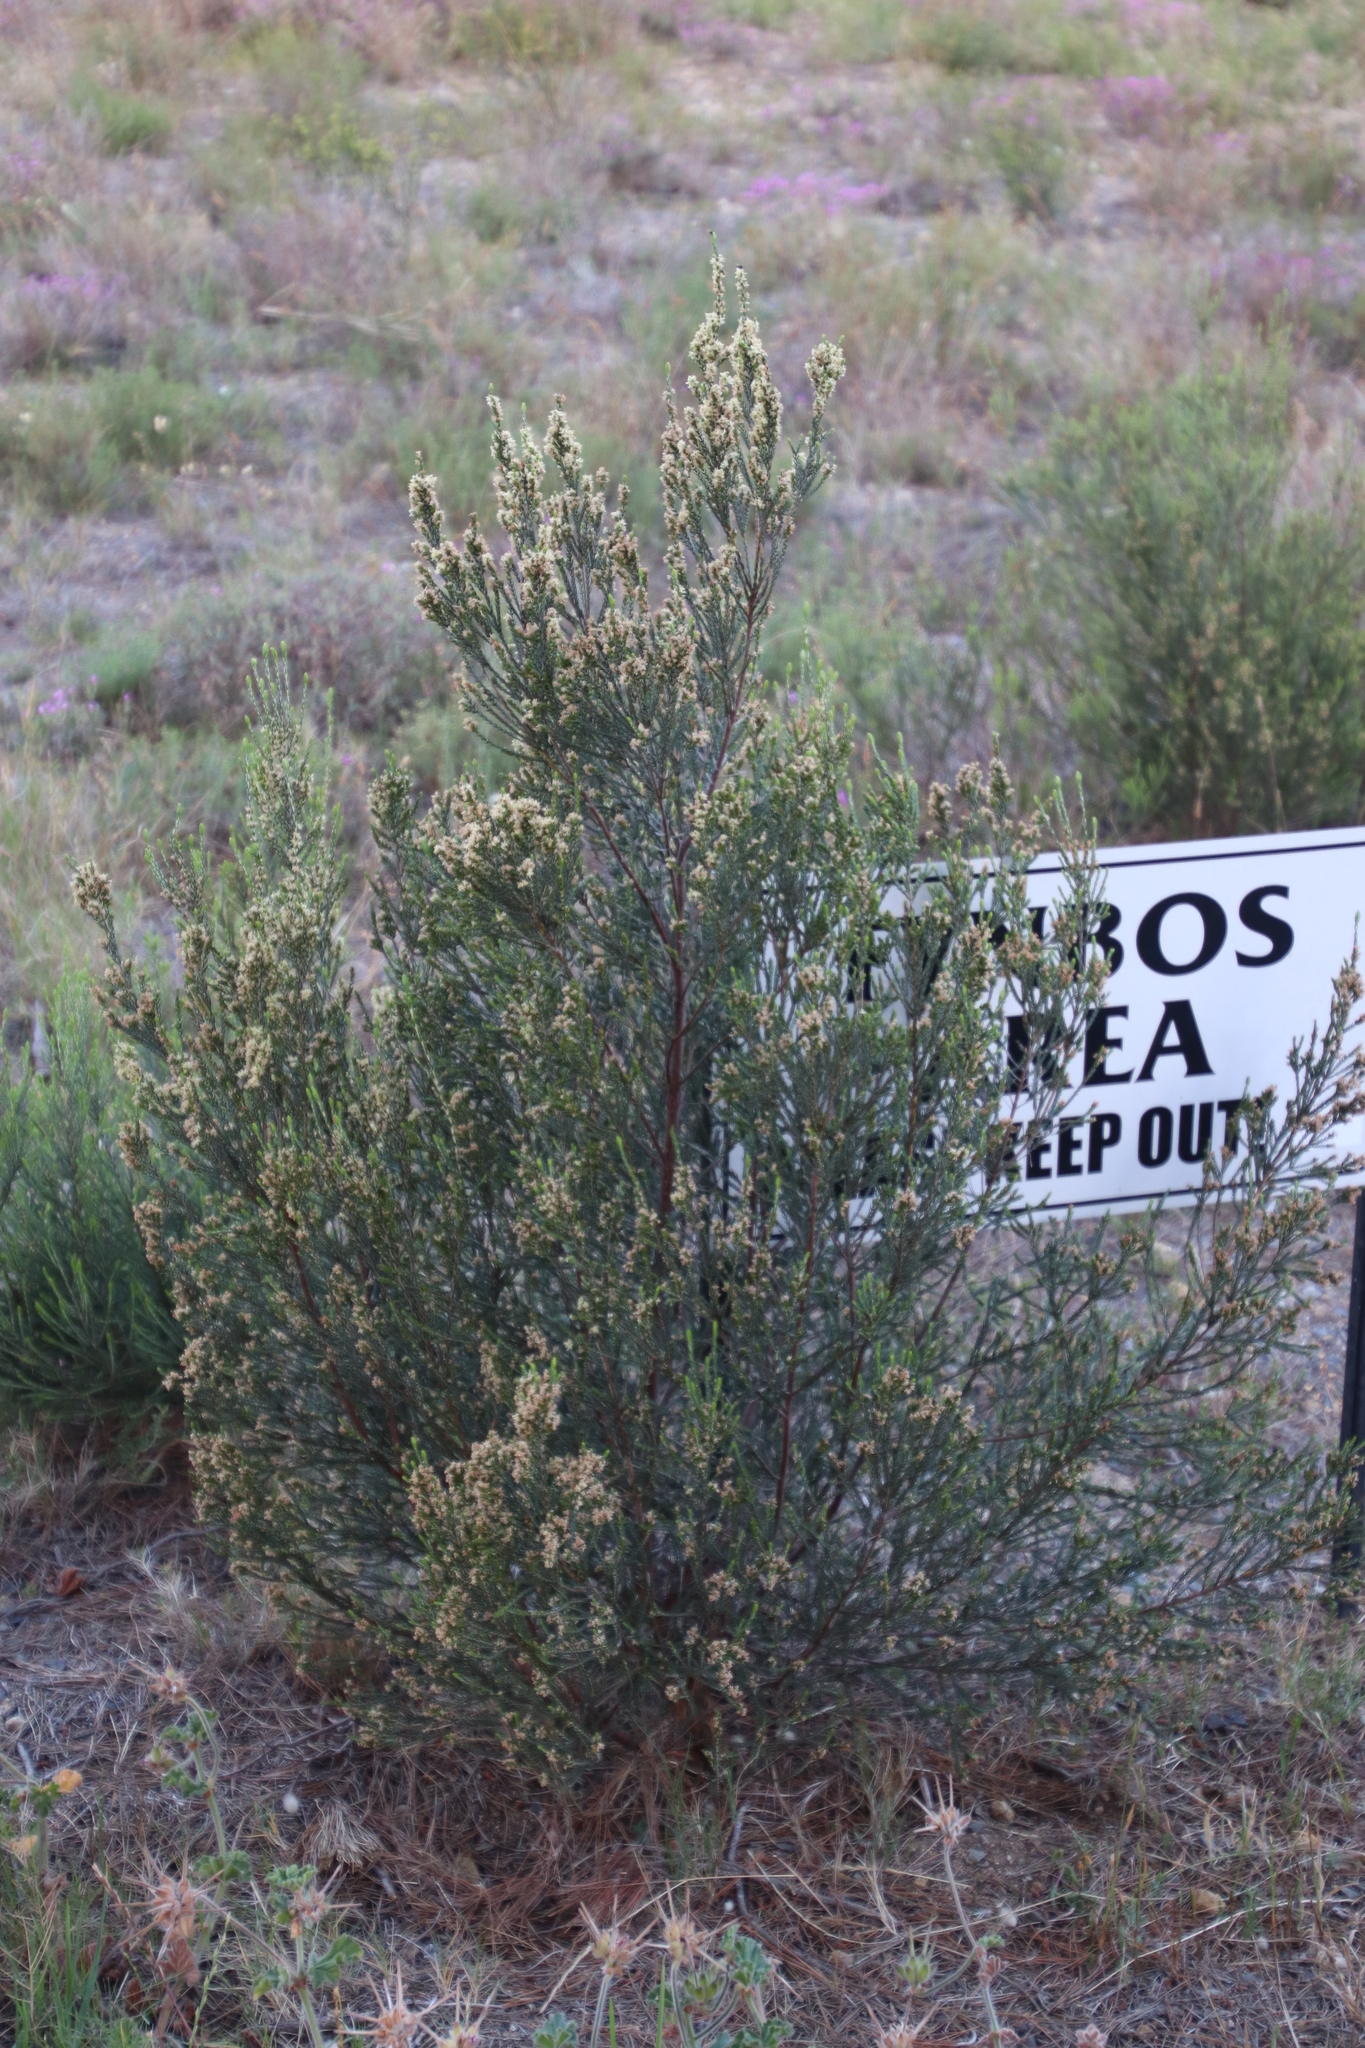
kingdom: Plantae
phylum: Tracheophyta
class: Magnoliopsida
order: Malvales
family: Thymelaeaceae
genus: Passerina
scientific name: Passerina corymbosa
